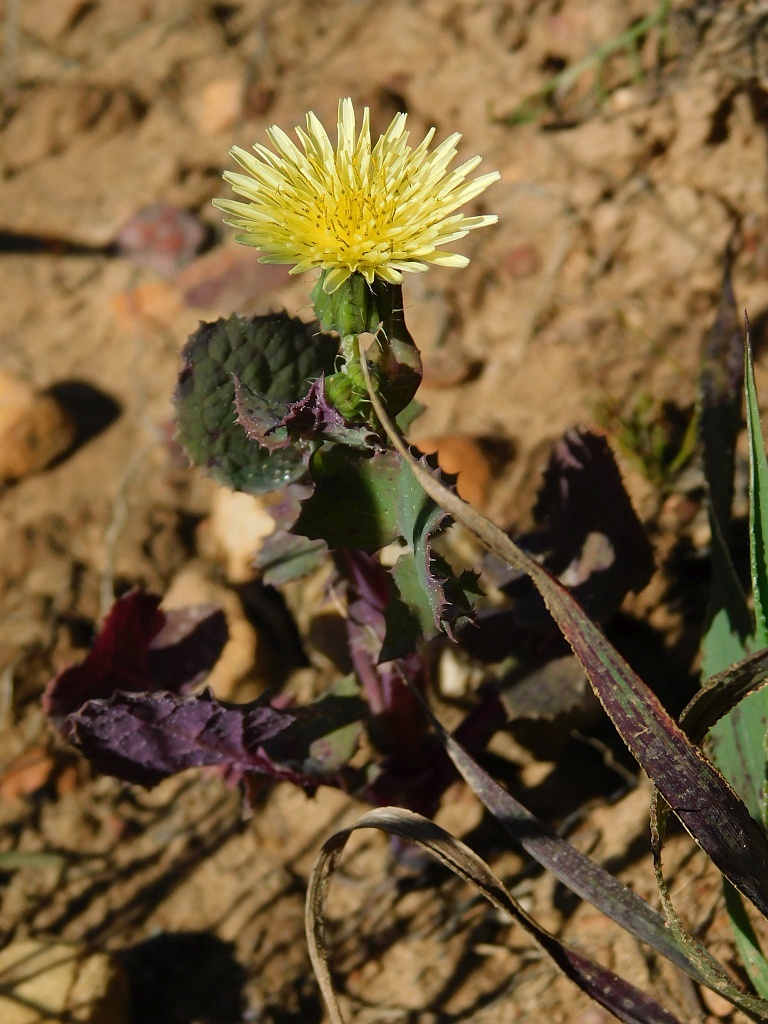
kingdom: Plantae
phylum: Tracheophyta
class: Magnoliopsida
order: Asterales
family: Asteraceae
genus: Sonchus
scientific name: Sonchus oleraceus
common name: Common sowthistle
